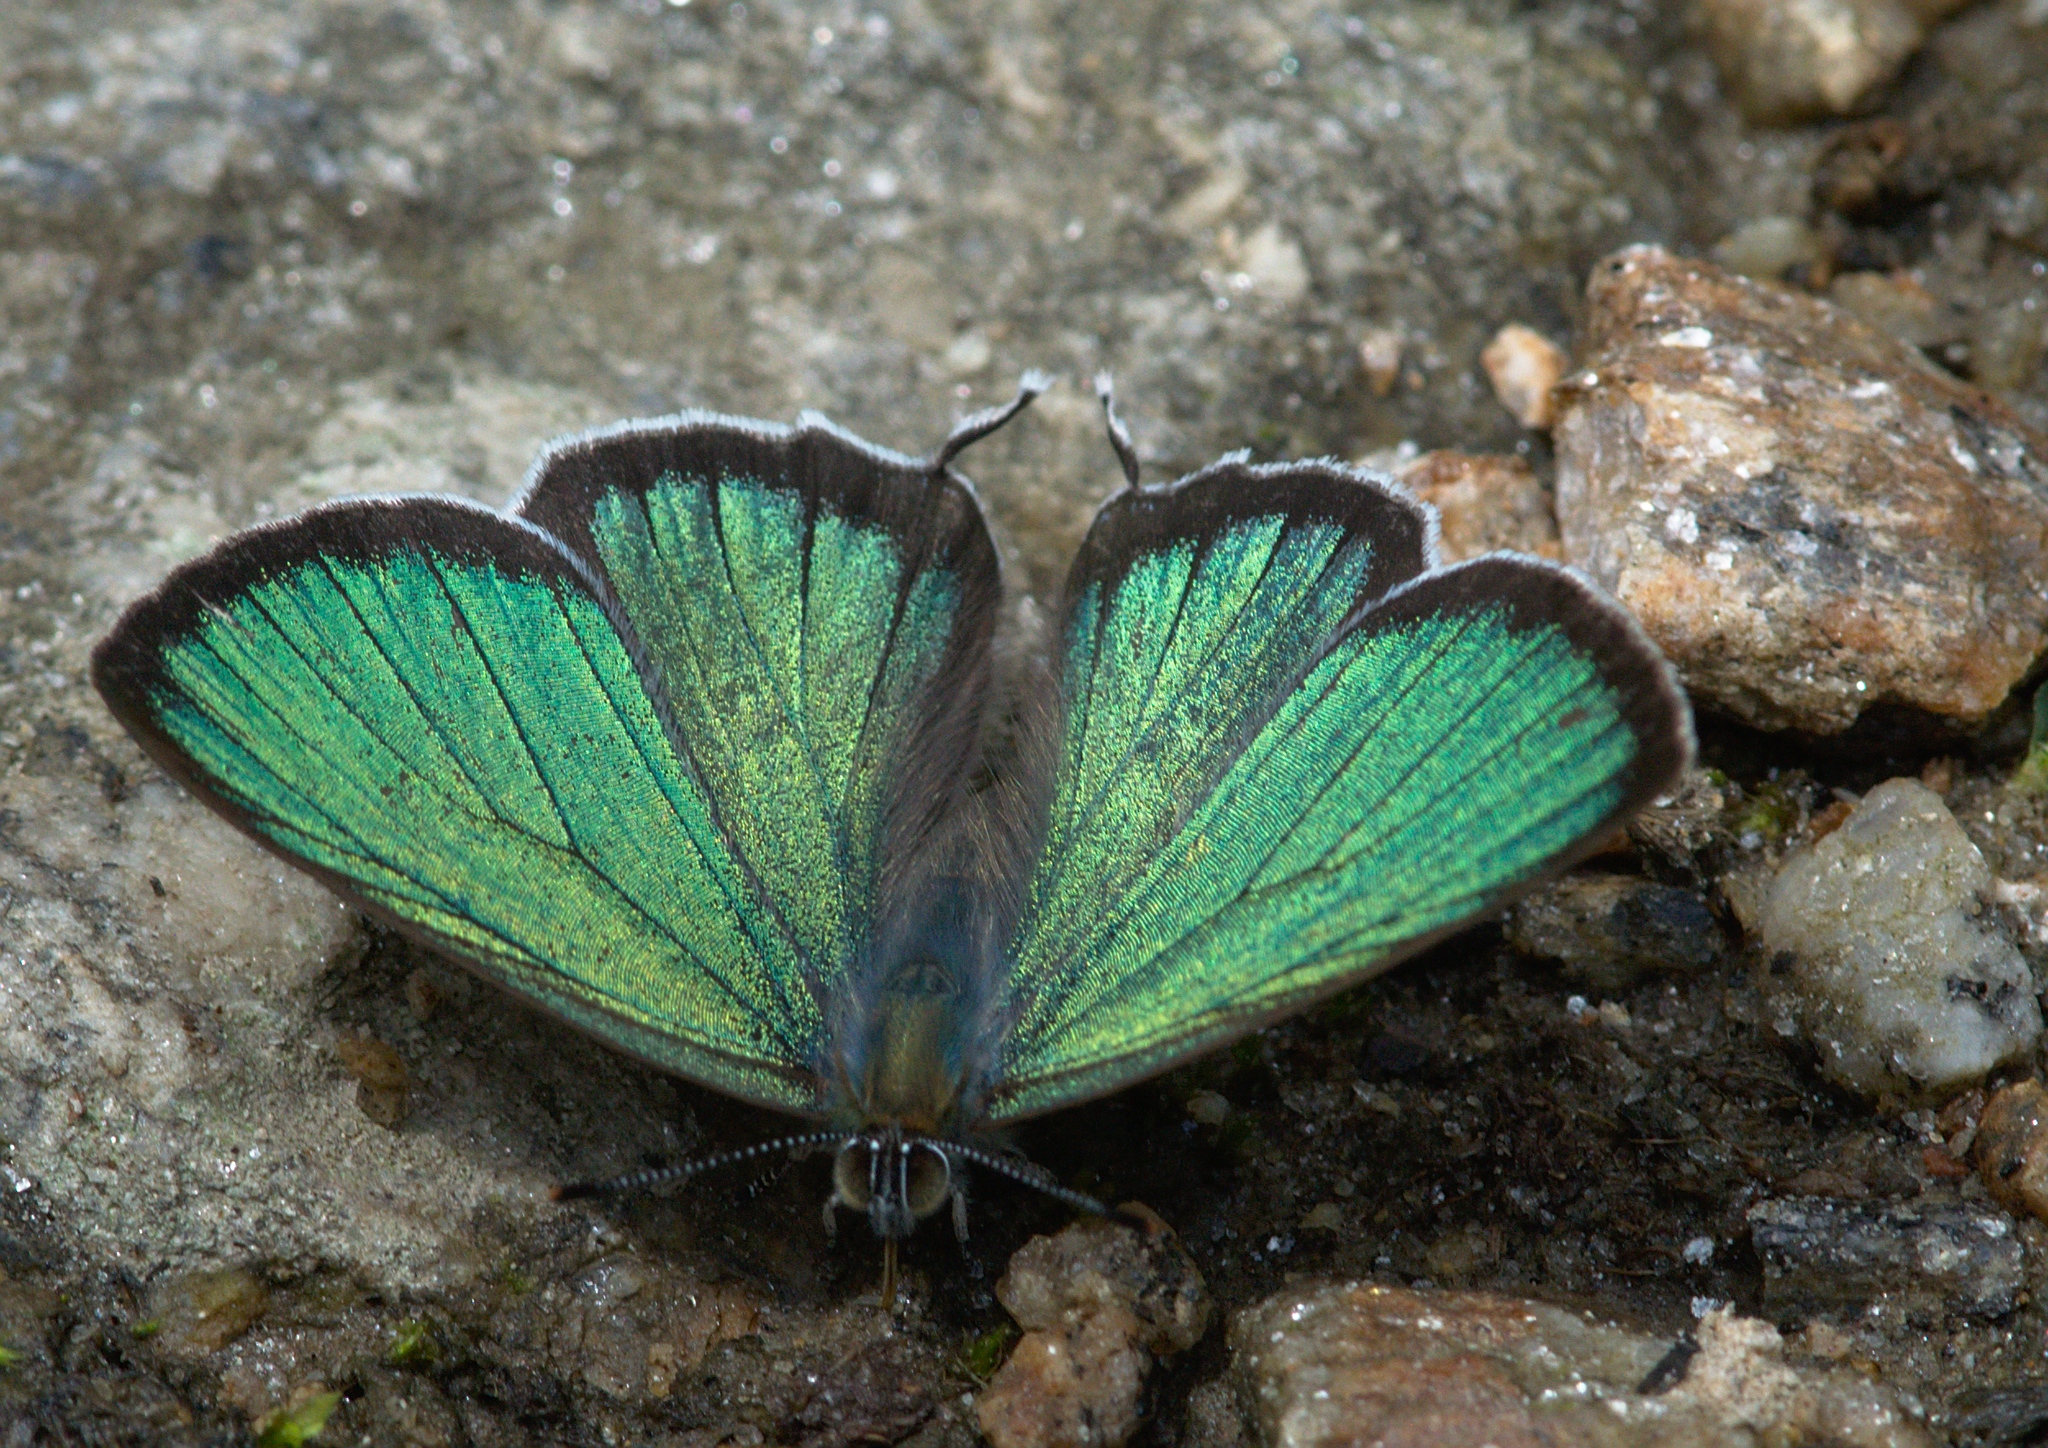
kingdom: Animalia
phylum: Arthropoda
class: Insecta
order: Lepidoptera
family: Lycaenidae
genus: Chrysozephyrus
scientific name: Chrysozephyrus syla
